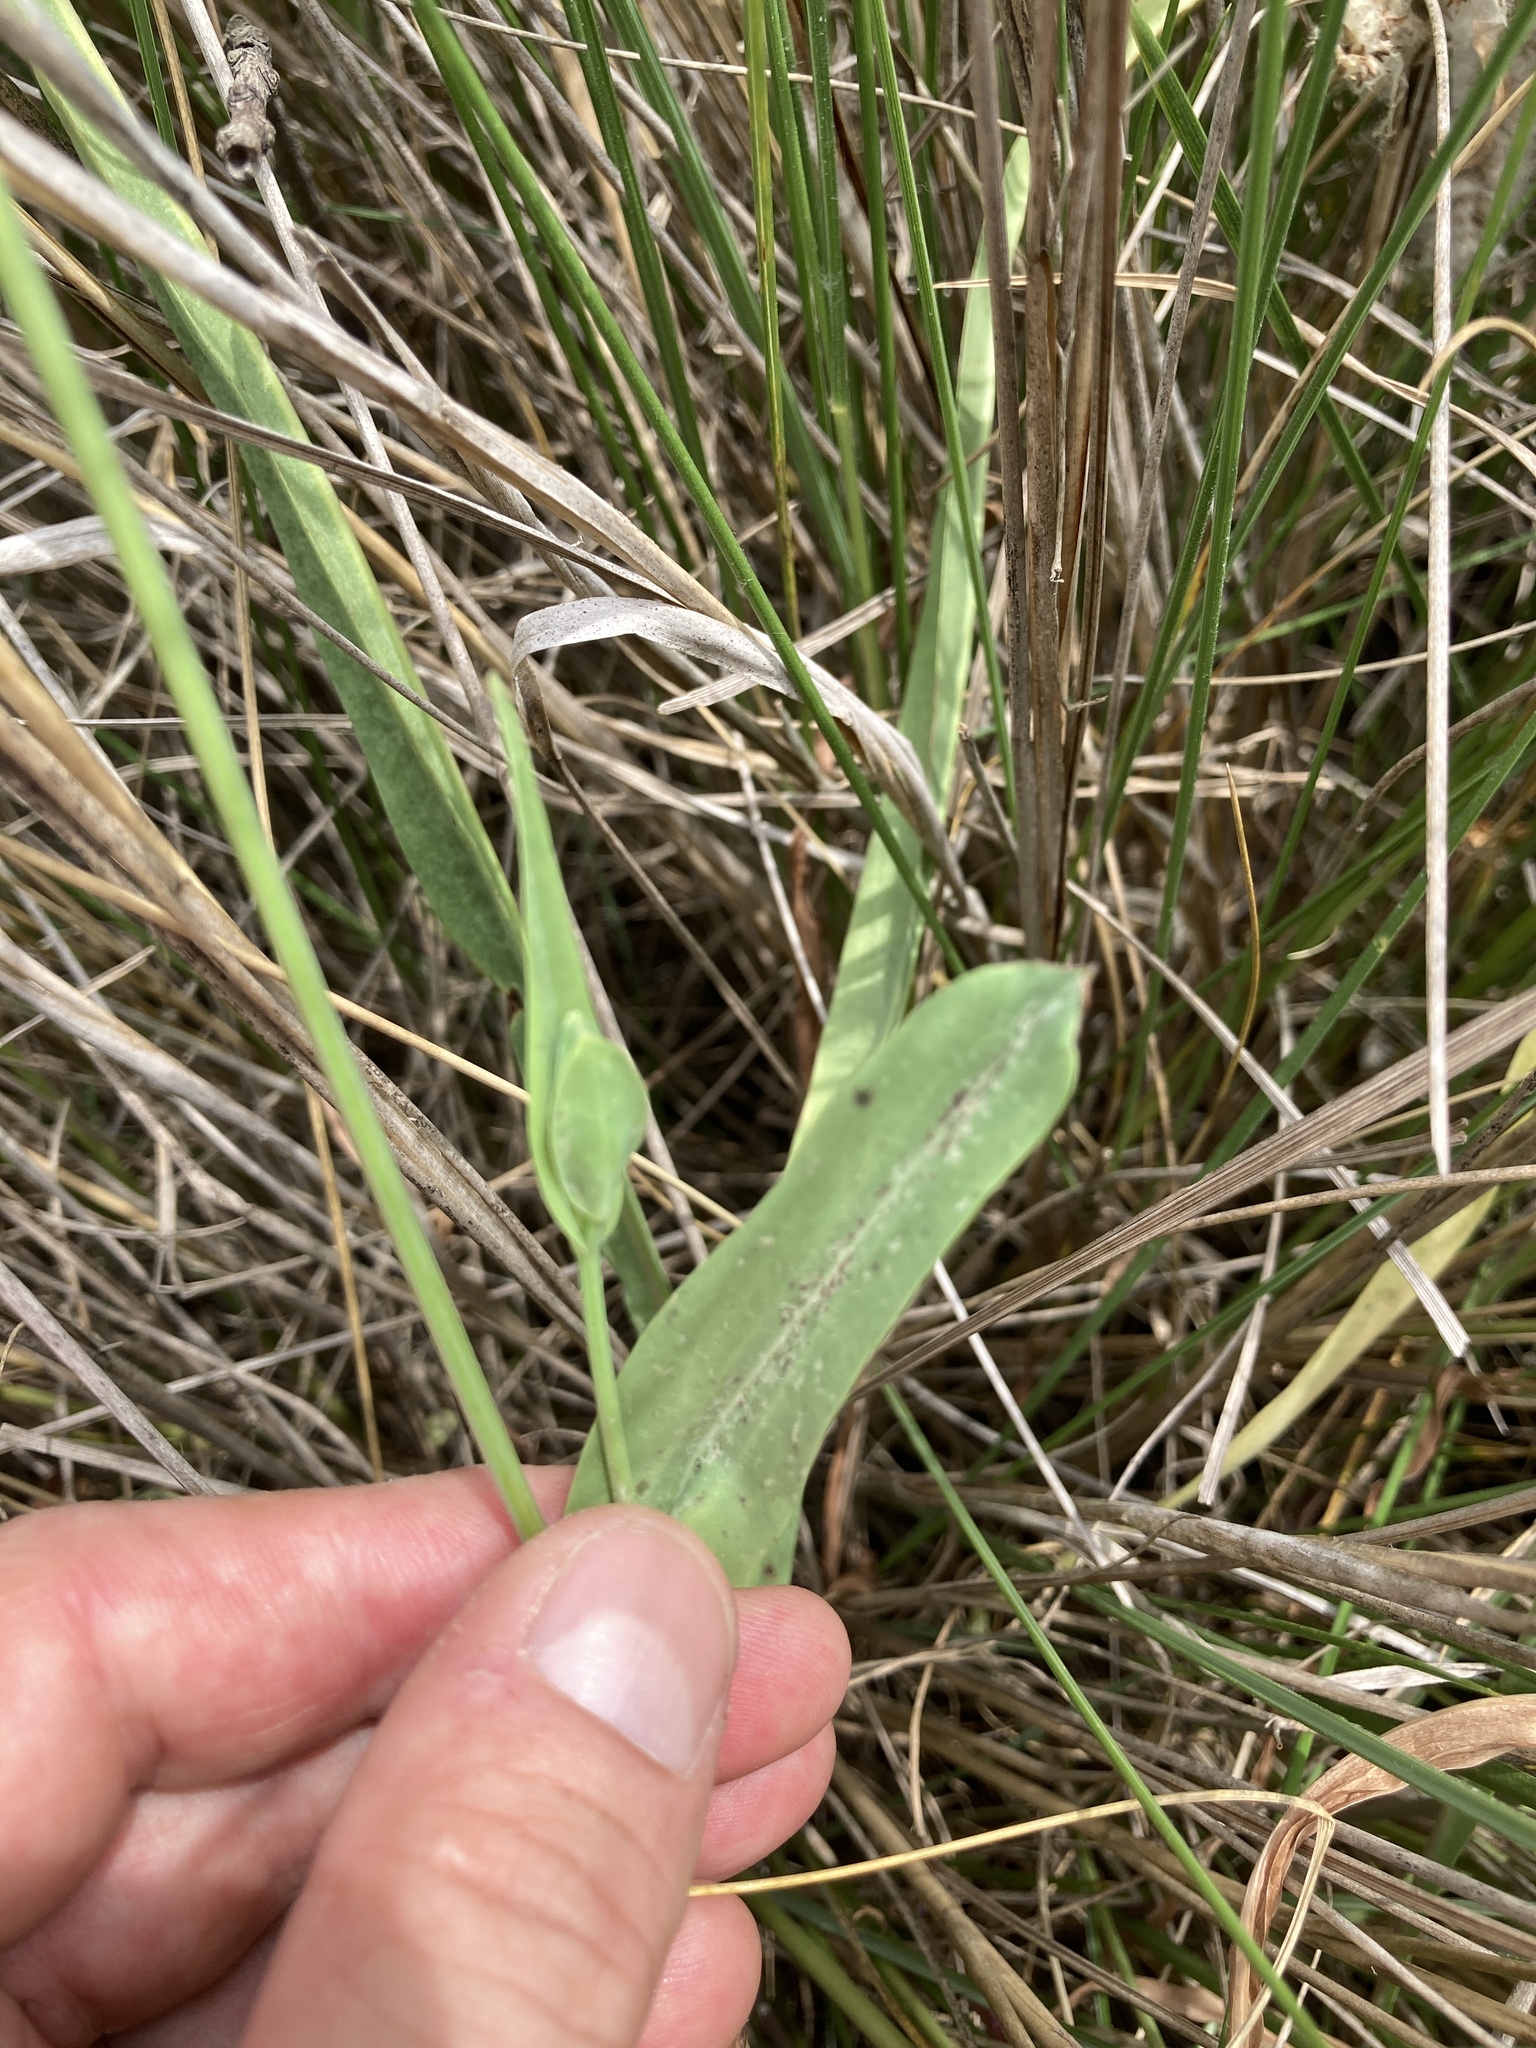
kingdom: Plantae
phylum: Tracheophyta
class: Magnoliopsida
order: Asterales
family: Asteraceae
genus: Picrosia
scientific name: Picrosia longifolia
